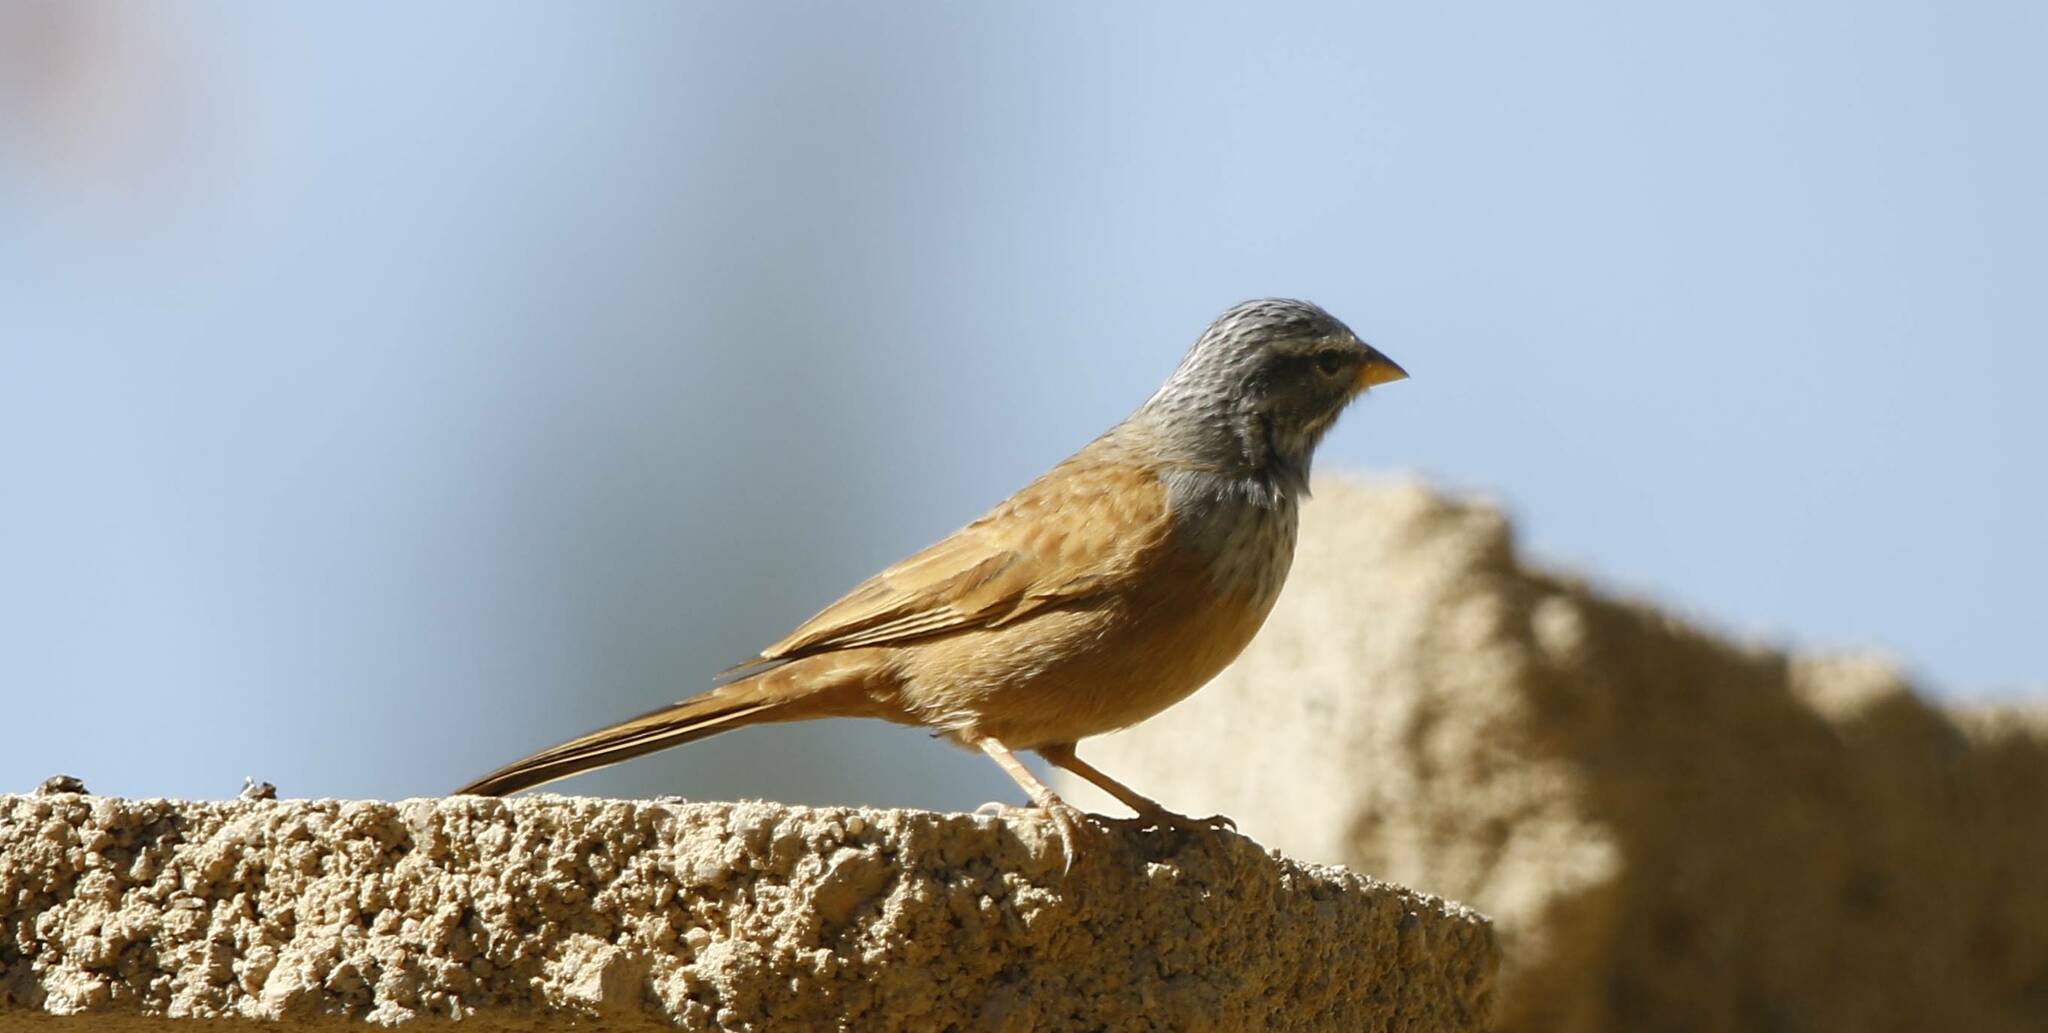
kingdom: Animalia
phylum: Chordata
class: Aves
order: Passeriformes
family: Emberizidae
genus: Emberiza
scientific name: Emberiza sahari
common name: House bunting
